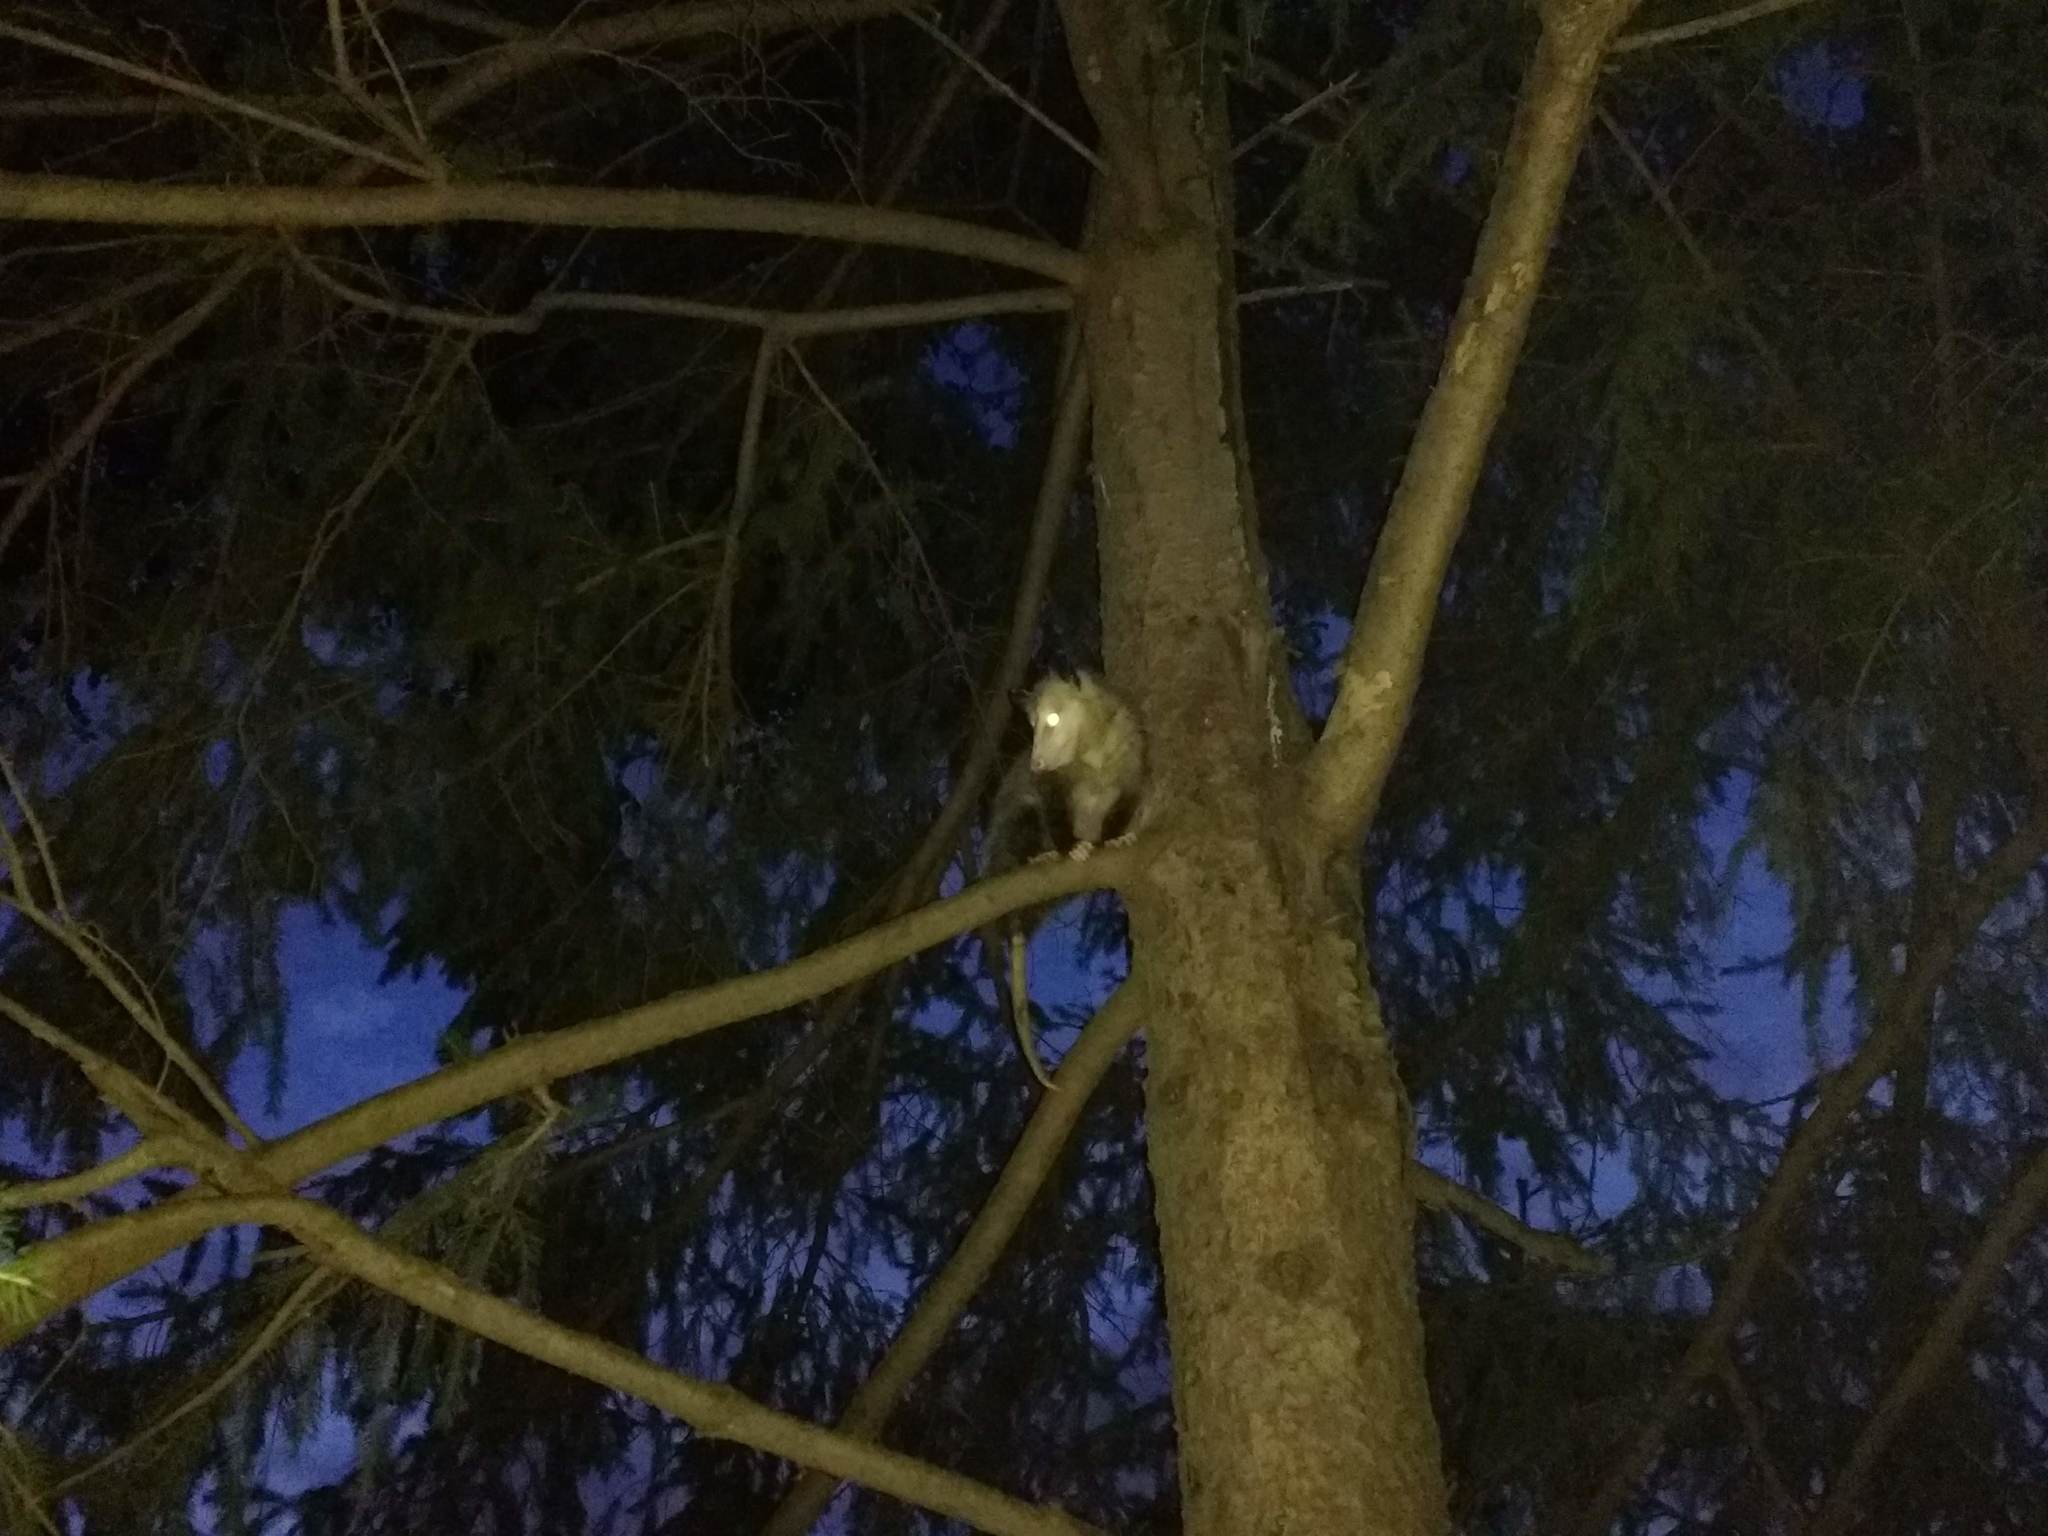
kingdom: Animalia
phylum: Chordata
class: Mammalia
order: Didelphimorphia
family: Didelphidae
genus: Didelphis
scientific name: Didelphis virginiana
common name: Virginia opossum
